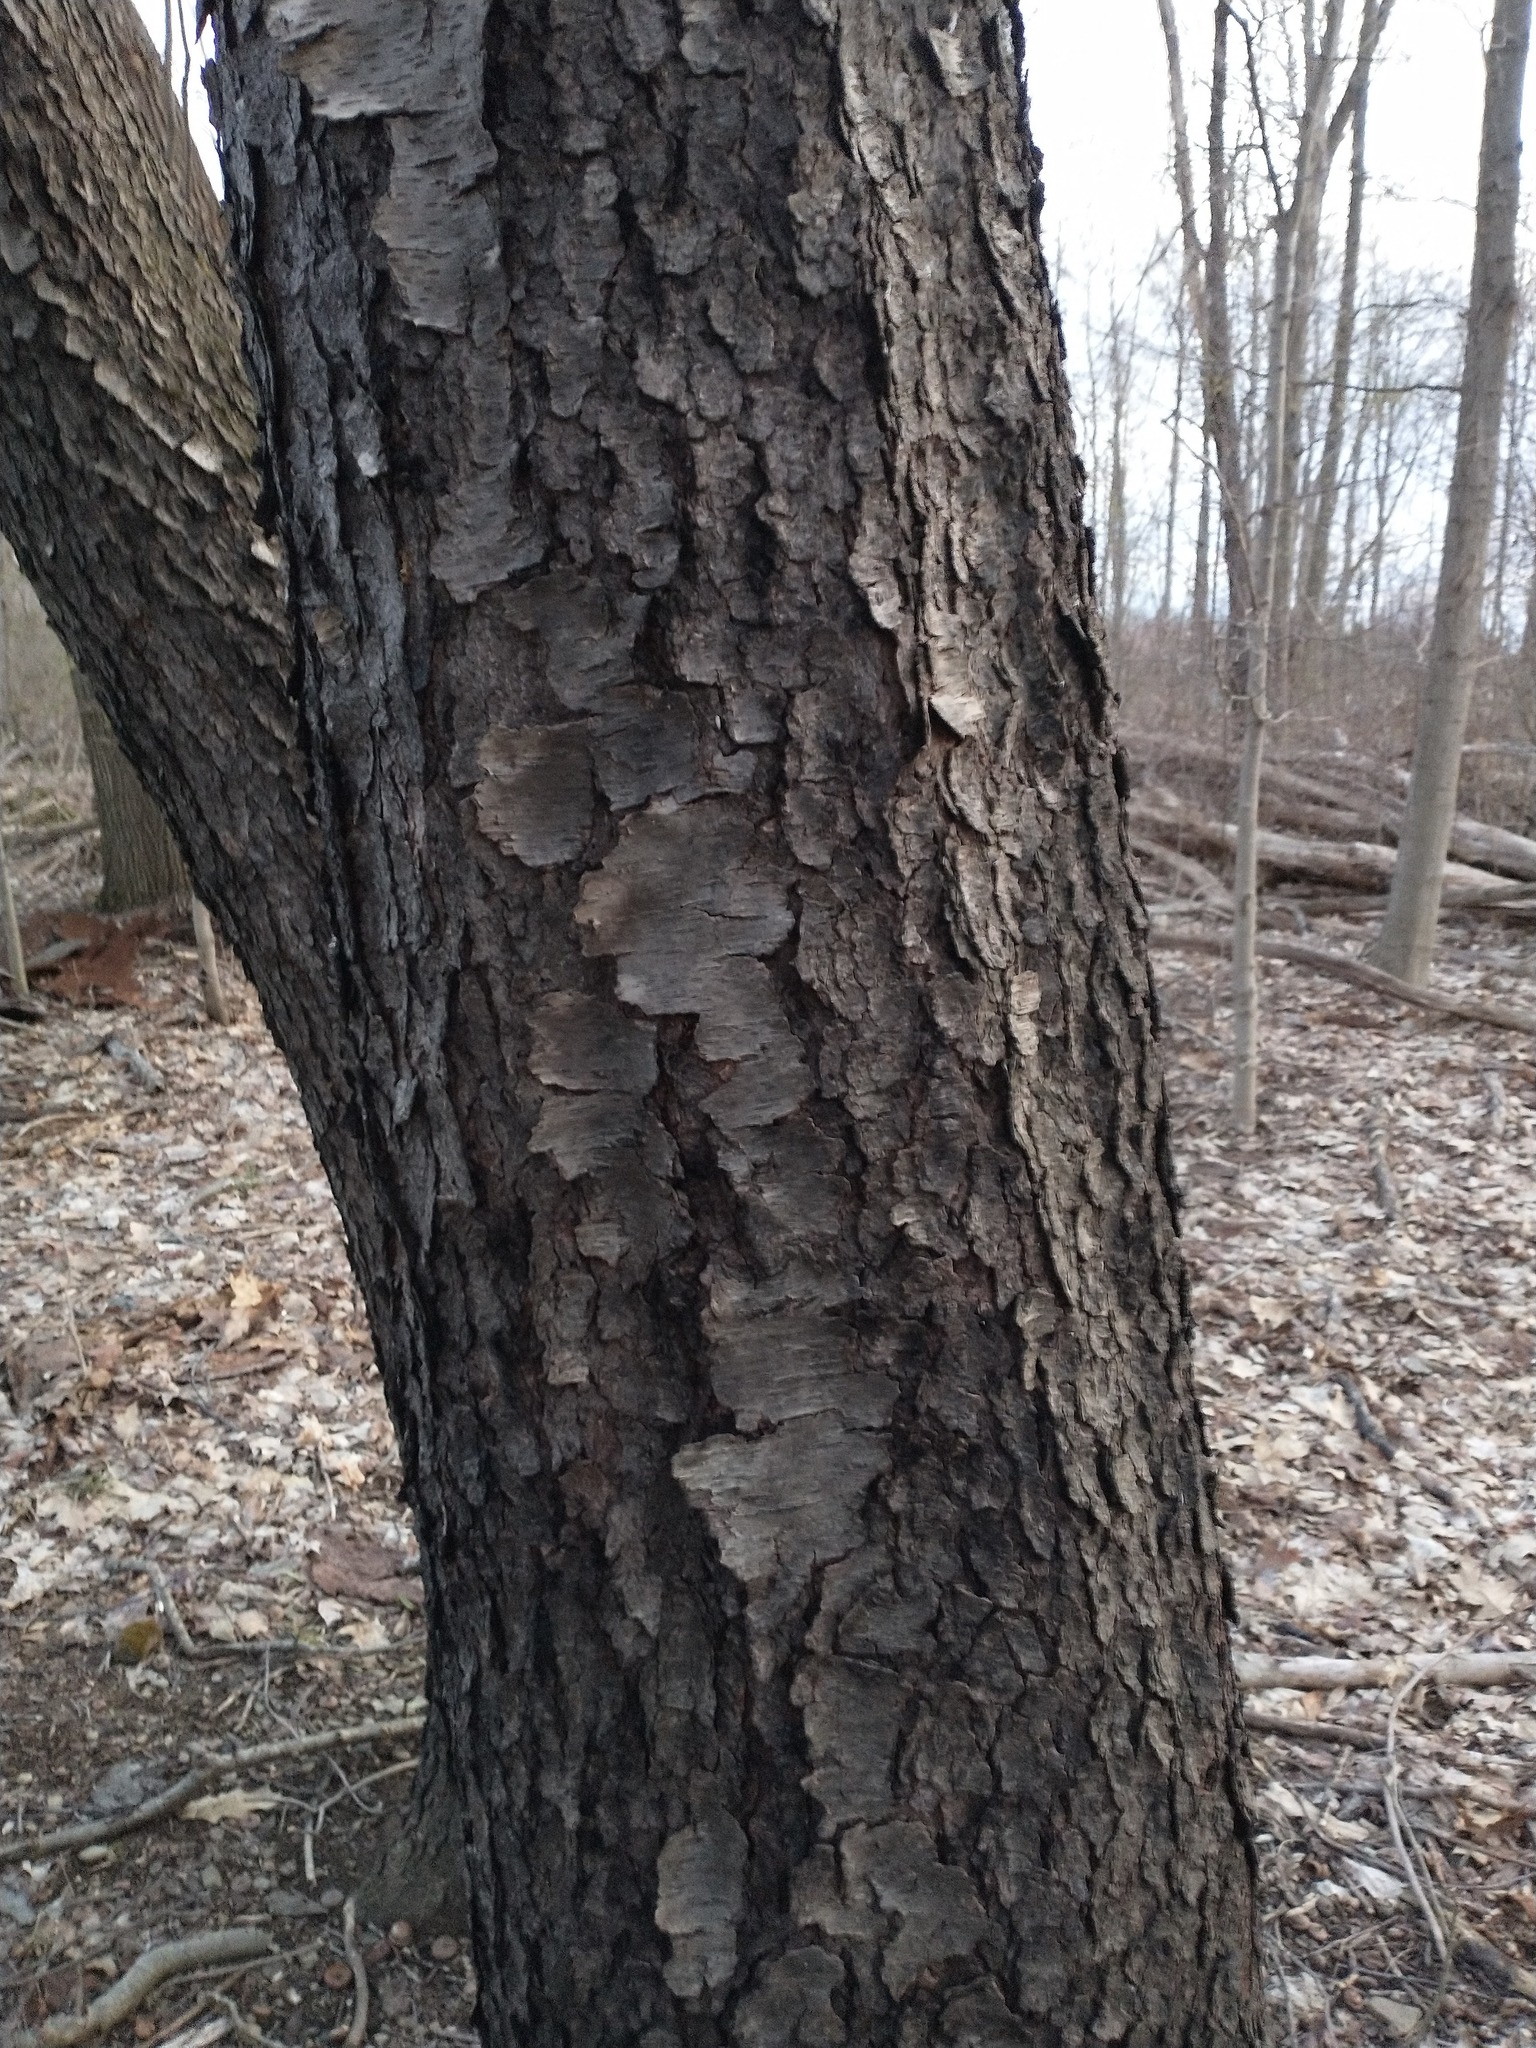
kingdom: Plantae
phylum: Tracheophyta
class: Magnoliopsida
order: Rosales
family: Rosaceae
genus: Prunus
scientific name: Prunus serotina
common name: Black cherry
